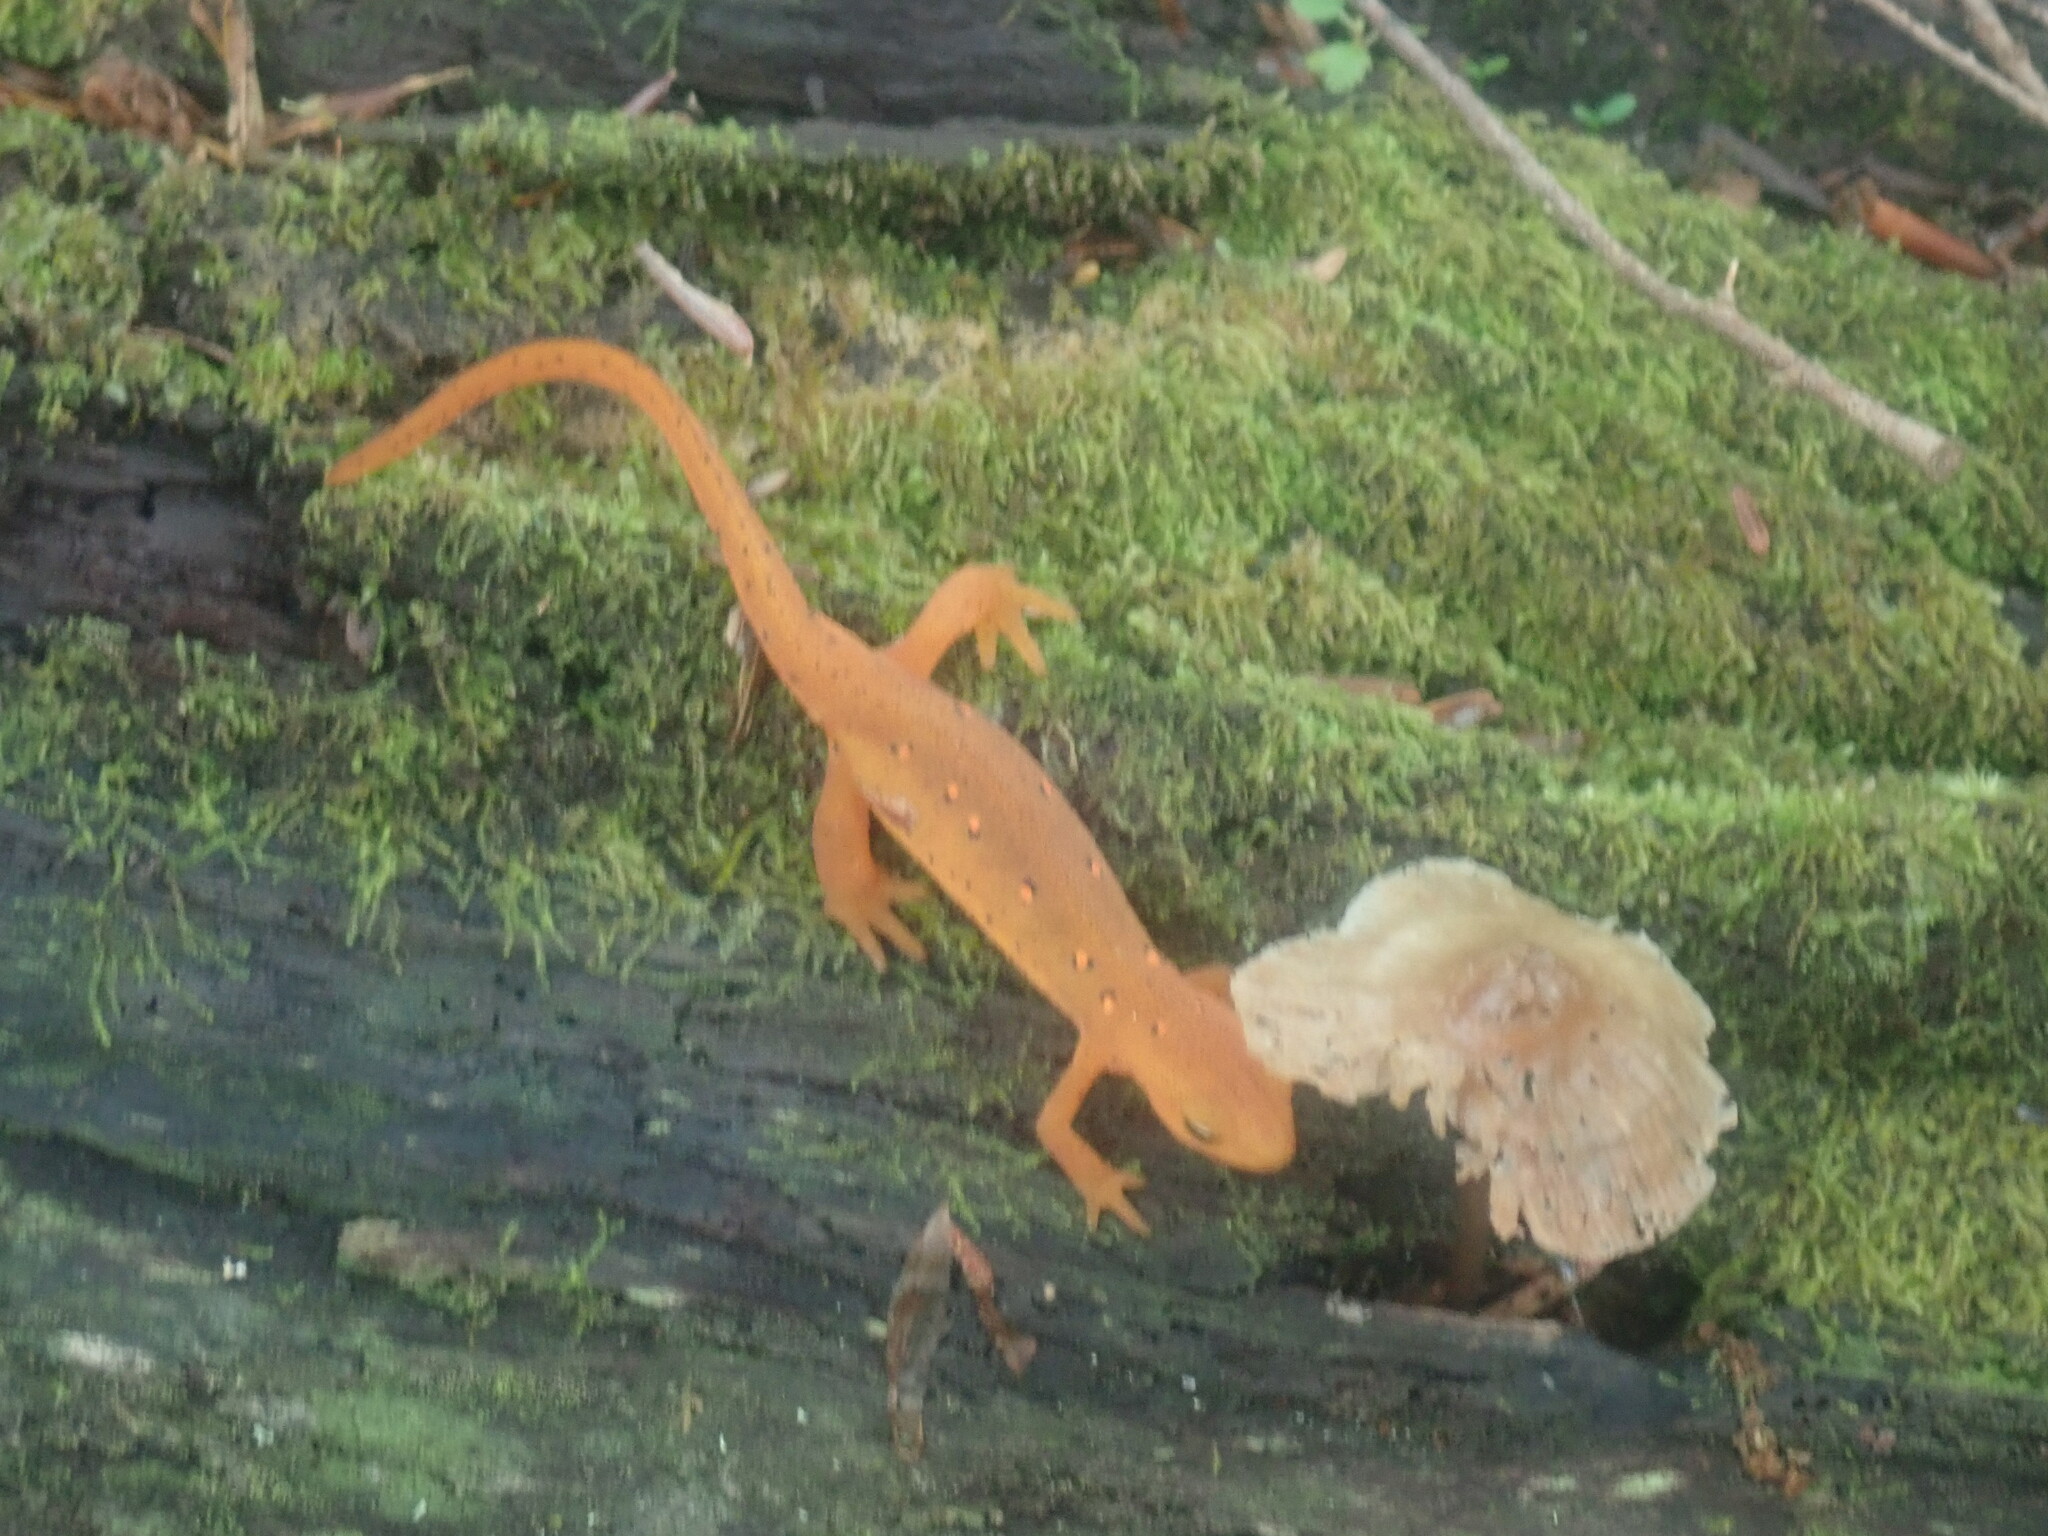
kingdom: Animalia
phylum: Chordata
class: Amphibia
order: Caudata
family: Salamandridae
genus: Notophthalmus
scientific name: Notophthalmus viridescens
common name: Eastern newt
